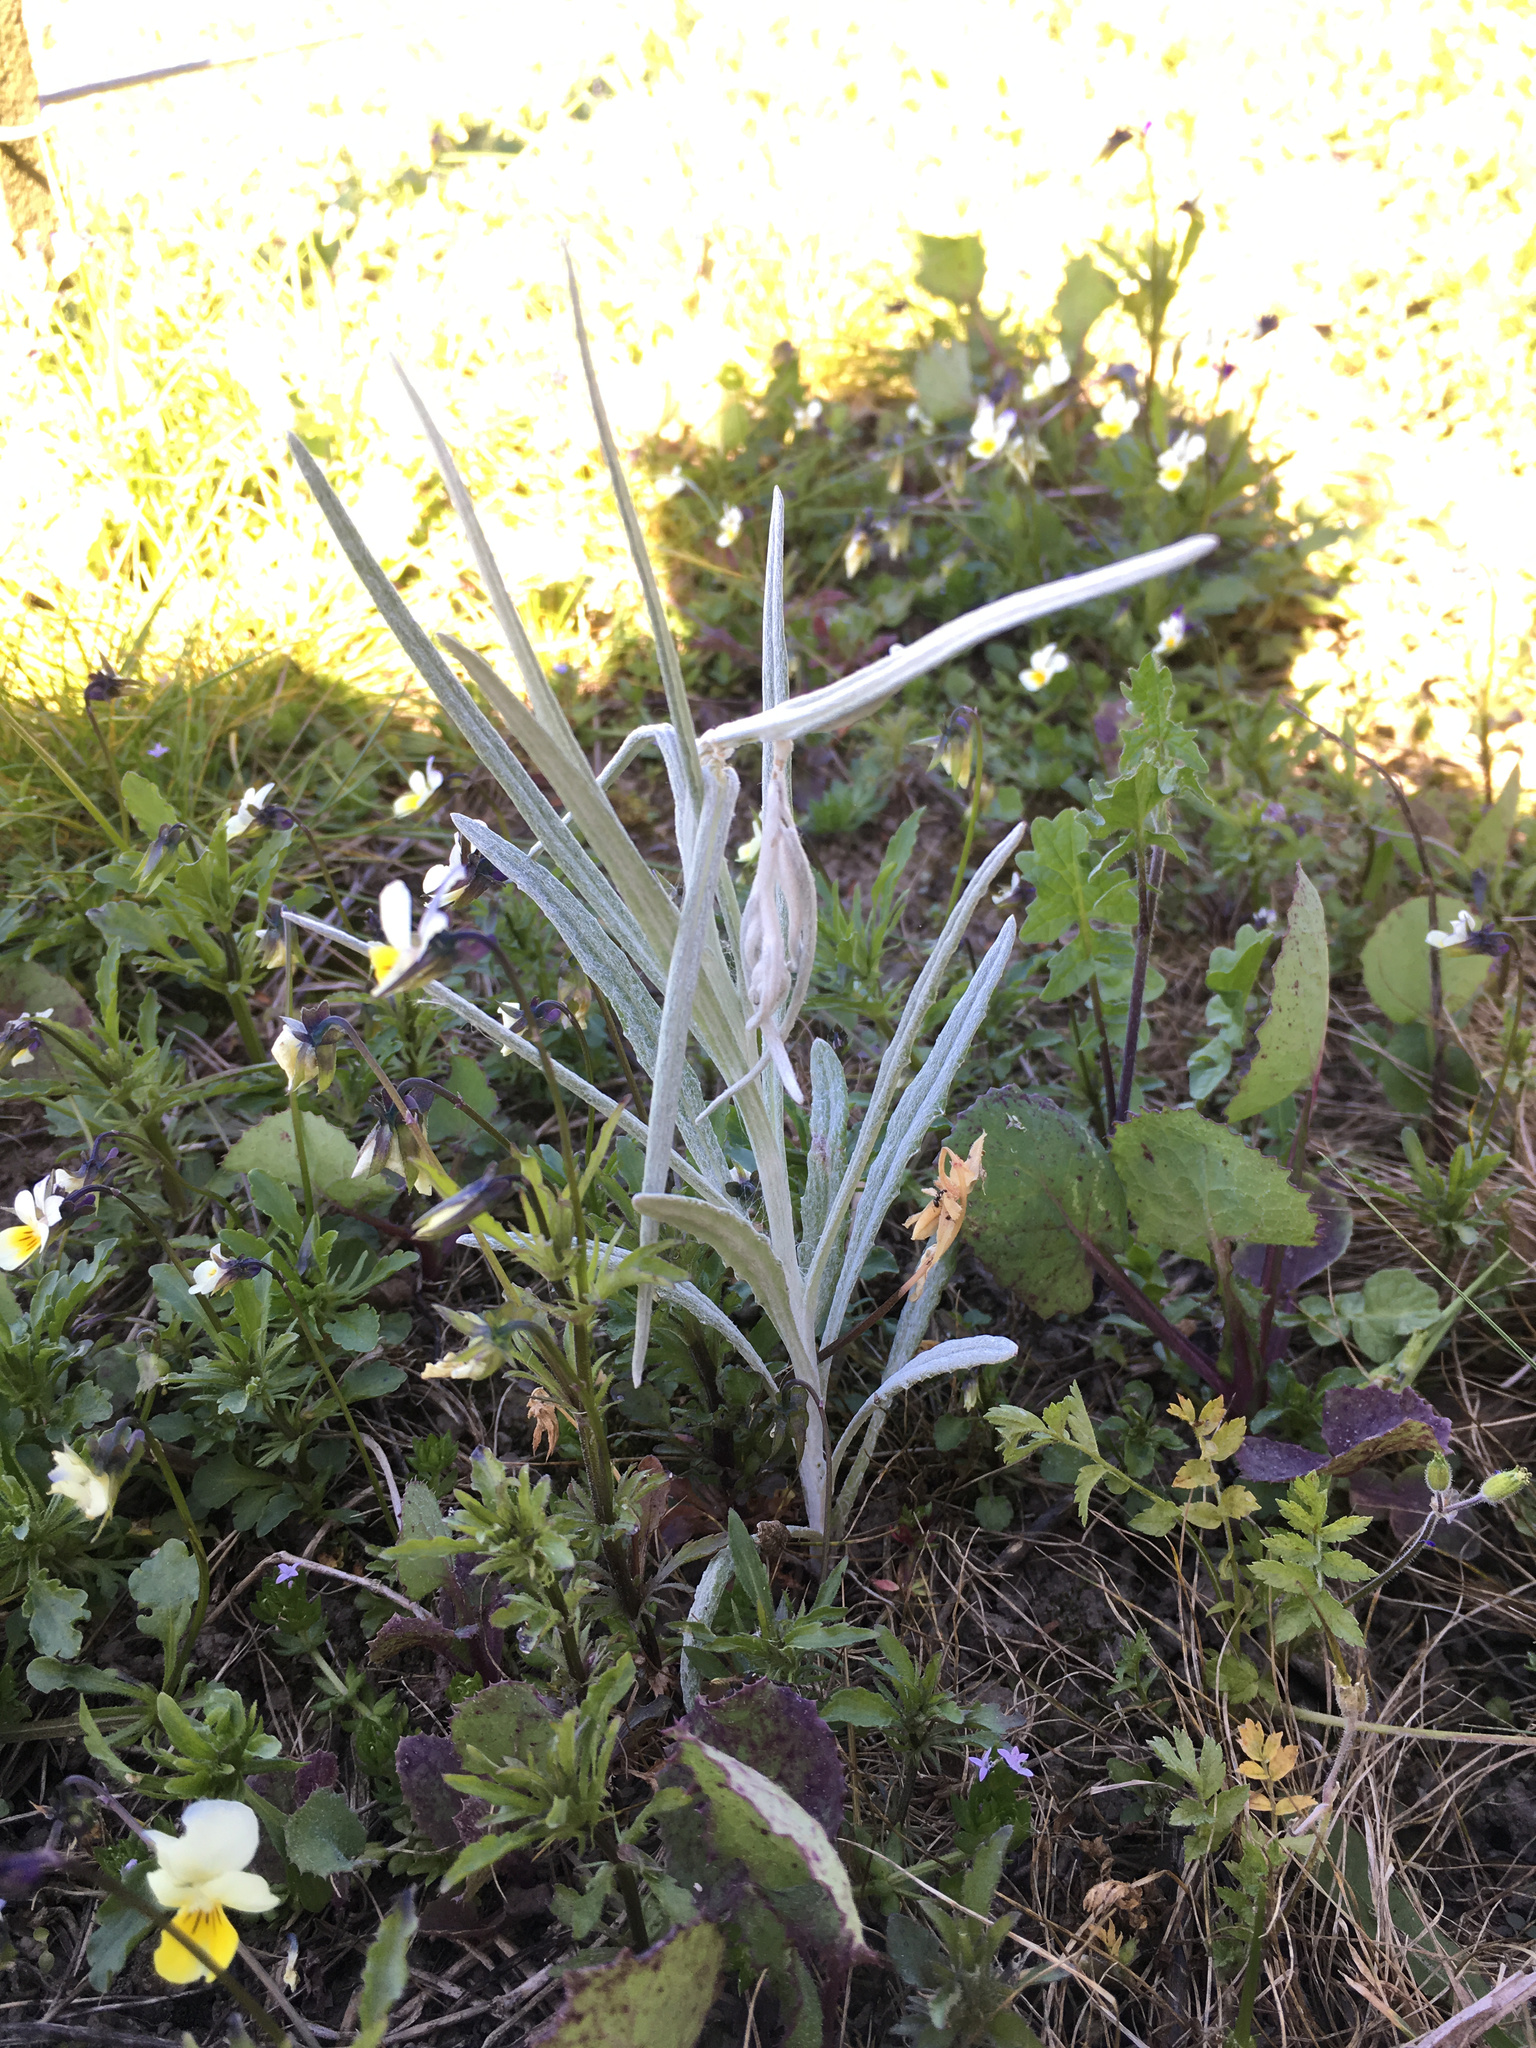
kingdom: Plantae
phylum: Tracheophyta
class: Magnoliopsida
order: Asterales
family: Asteraceae
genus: Senecio
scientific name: Senecio quadridentatus
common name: Cotton fireweed
